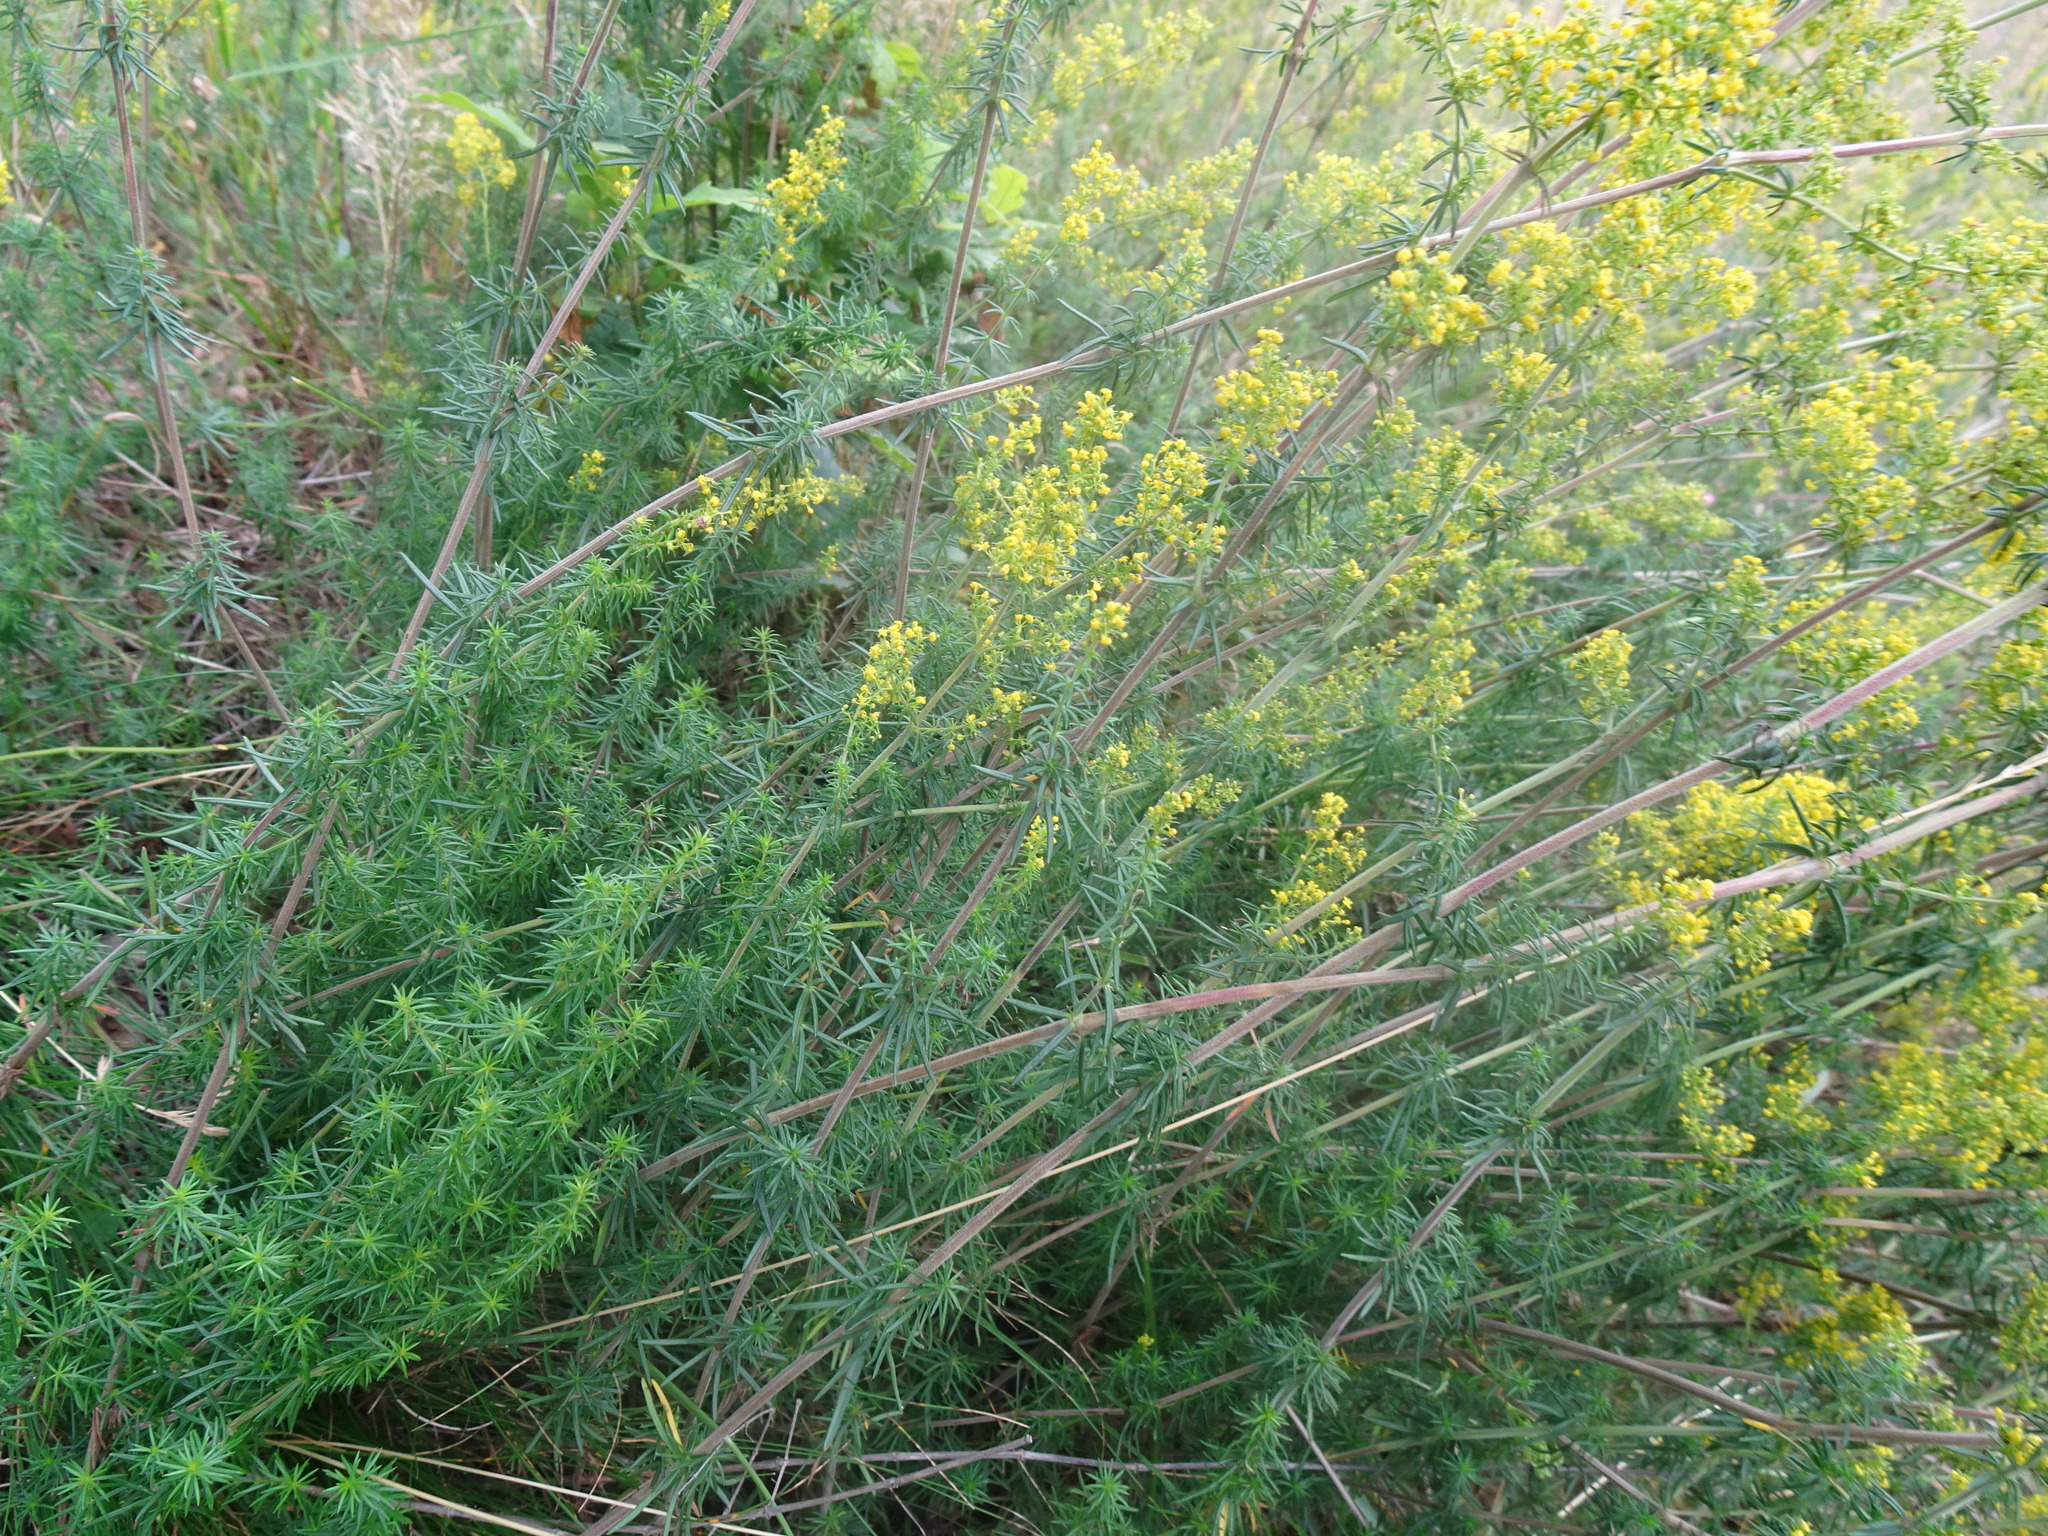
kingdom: Plantae
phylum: Tracheophyta
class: Magnoliopsida
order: Gentianales
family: Rubiaceae
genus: Galium
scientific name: Galium verum
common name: Lady's bedstraw
